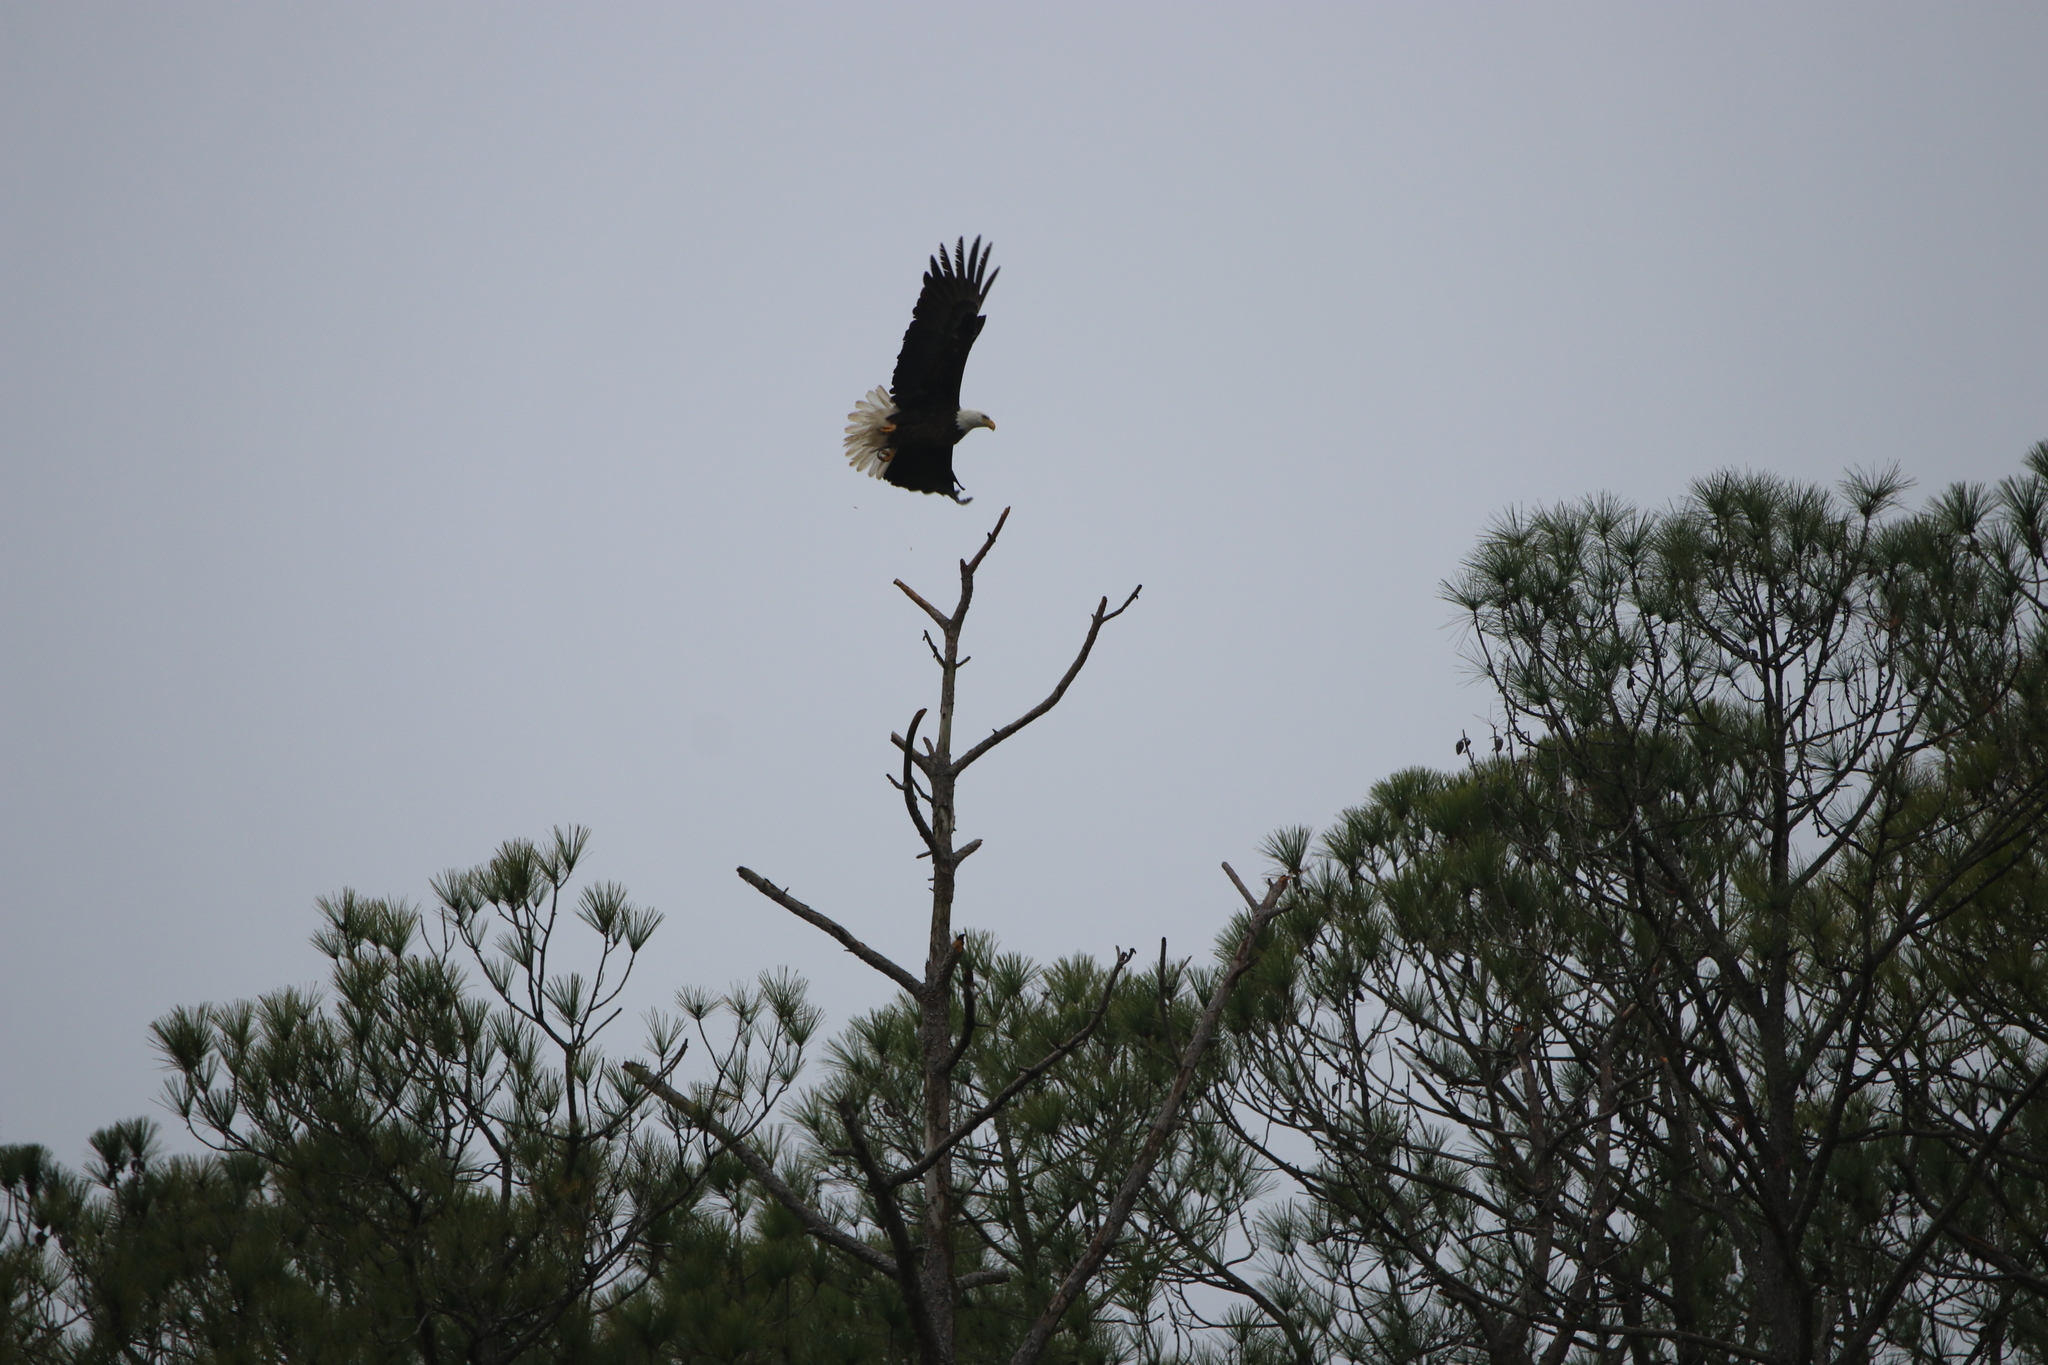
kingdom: Animalia
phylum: Chordata
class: Aves
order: Accipitriformes
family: Accipitridae
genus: Haliaeetus
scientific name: Haliaeetus leucocephalus
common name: Bald eagle
